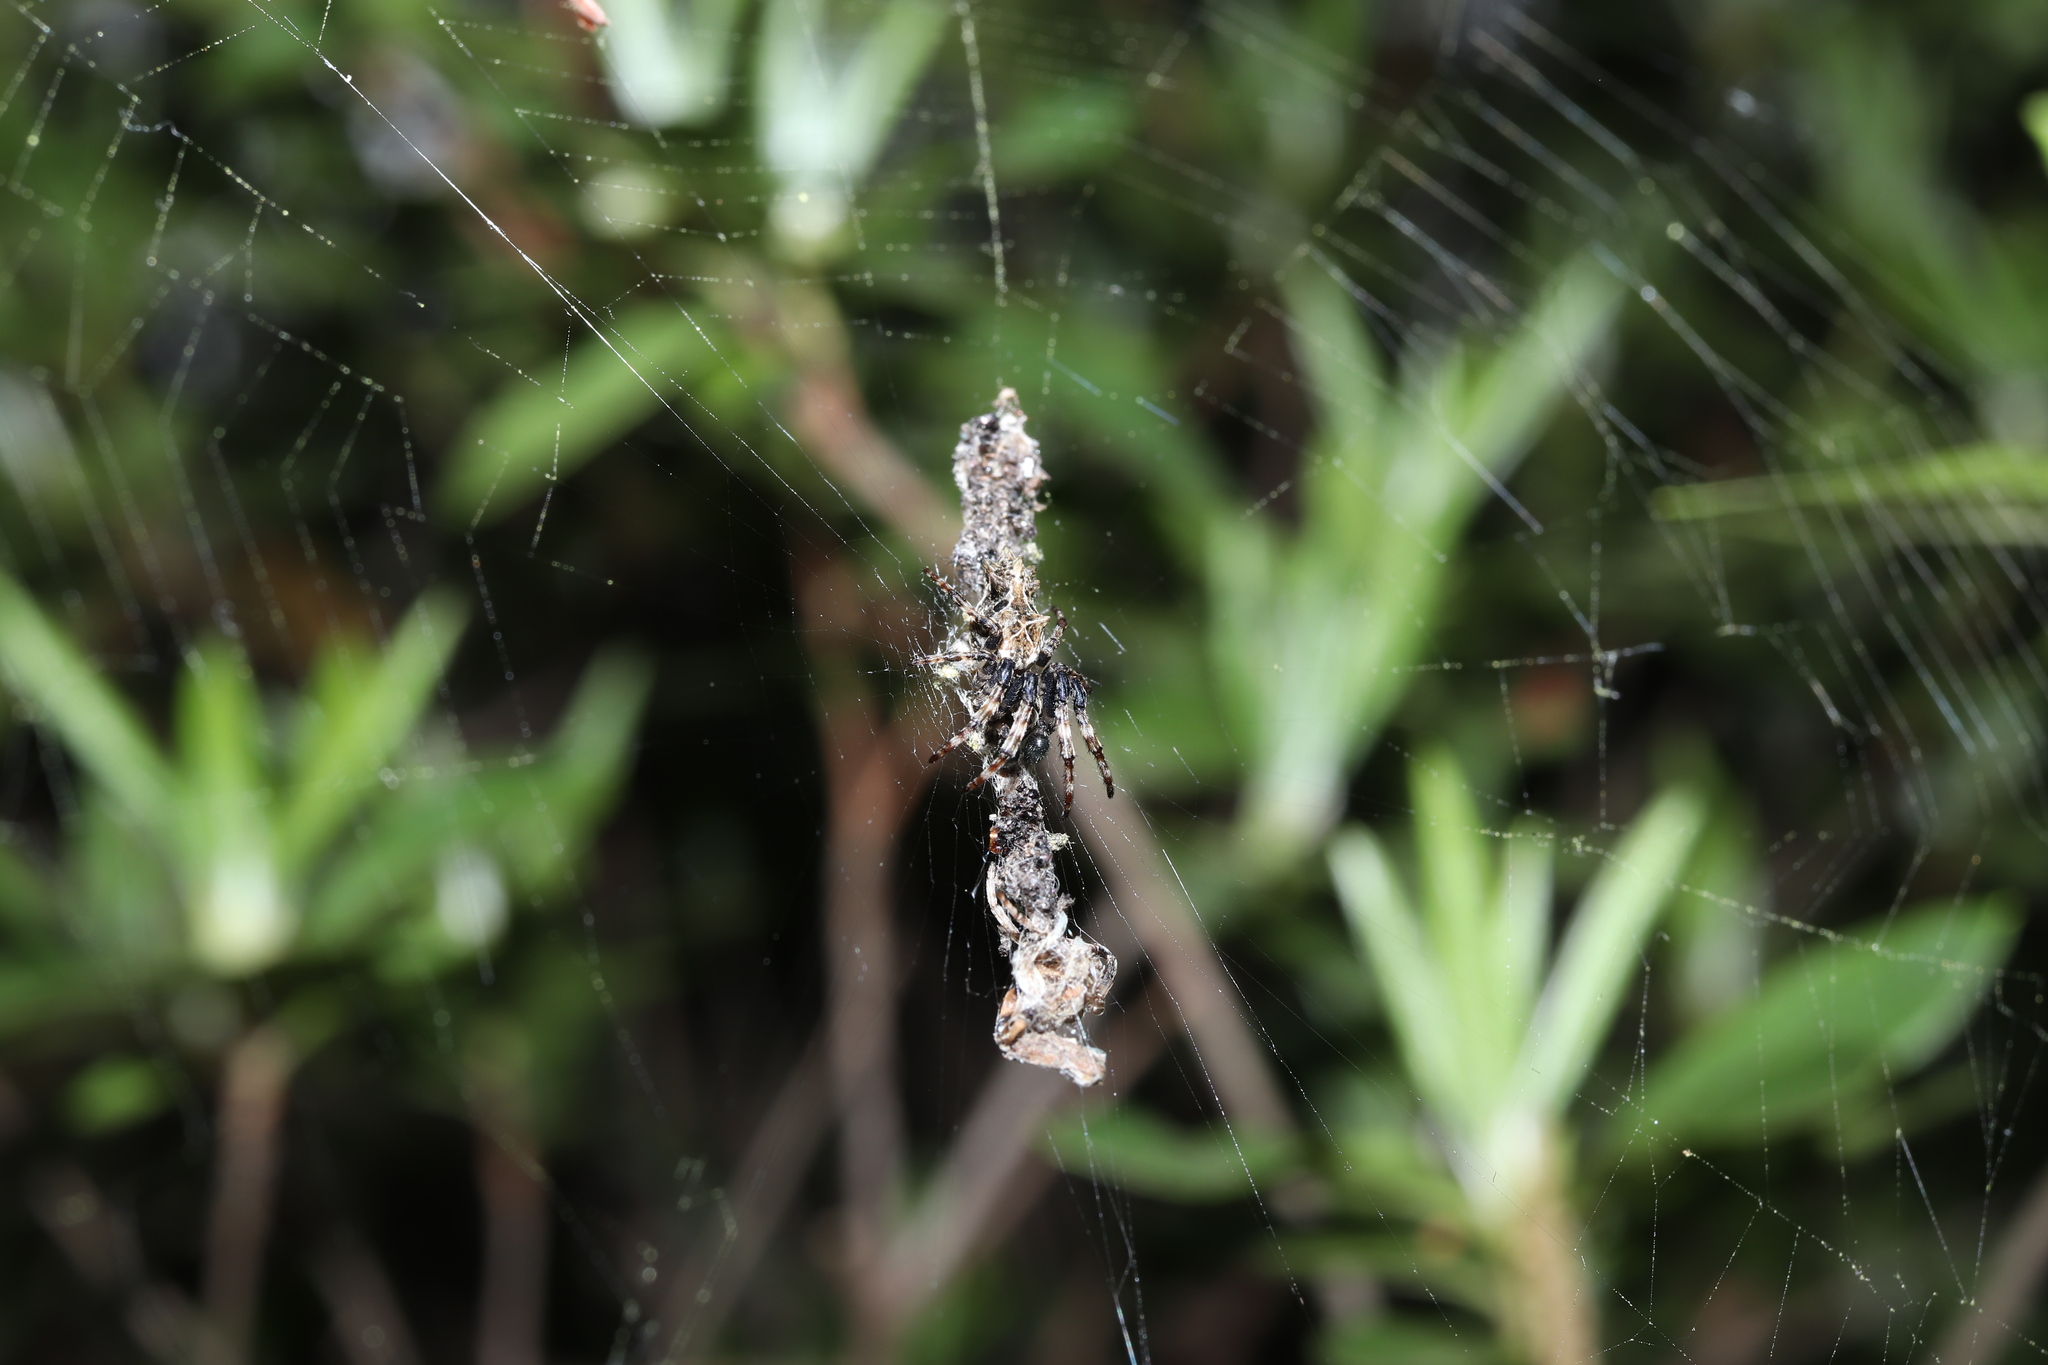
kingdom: Animalia
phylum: Arthropoda
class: Arachnida
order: Araneae
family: Araneidae
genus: Cyclosa
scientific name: Cyclosa octotuberculata
